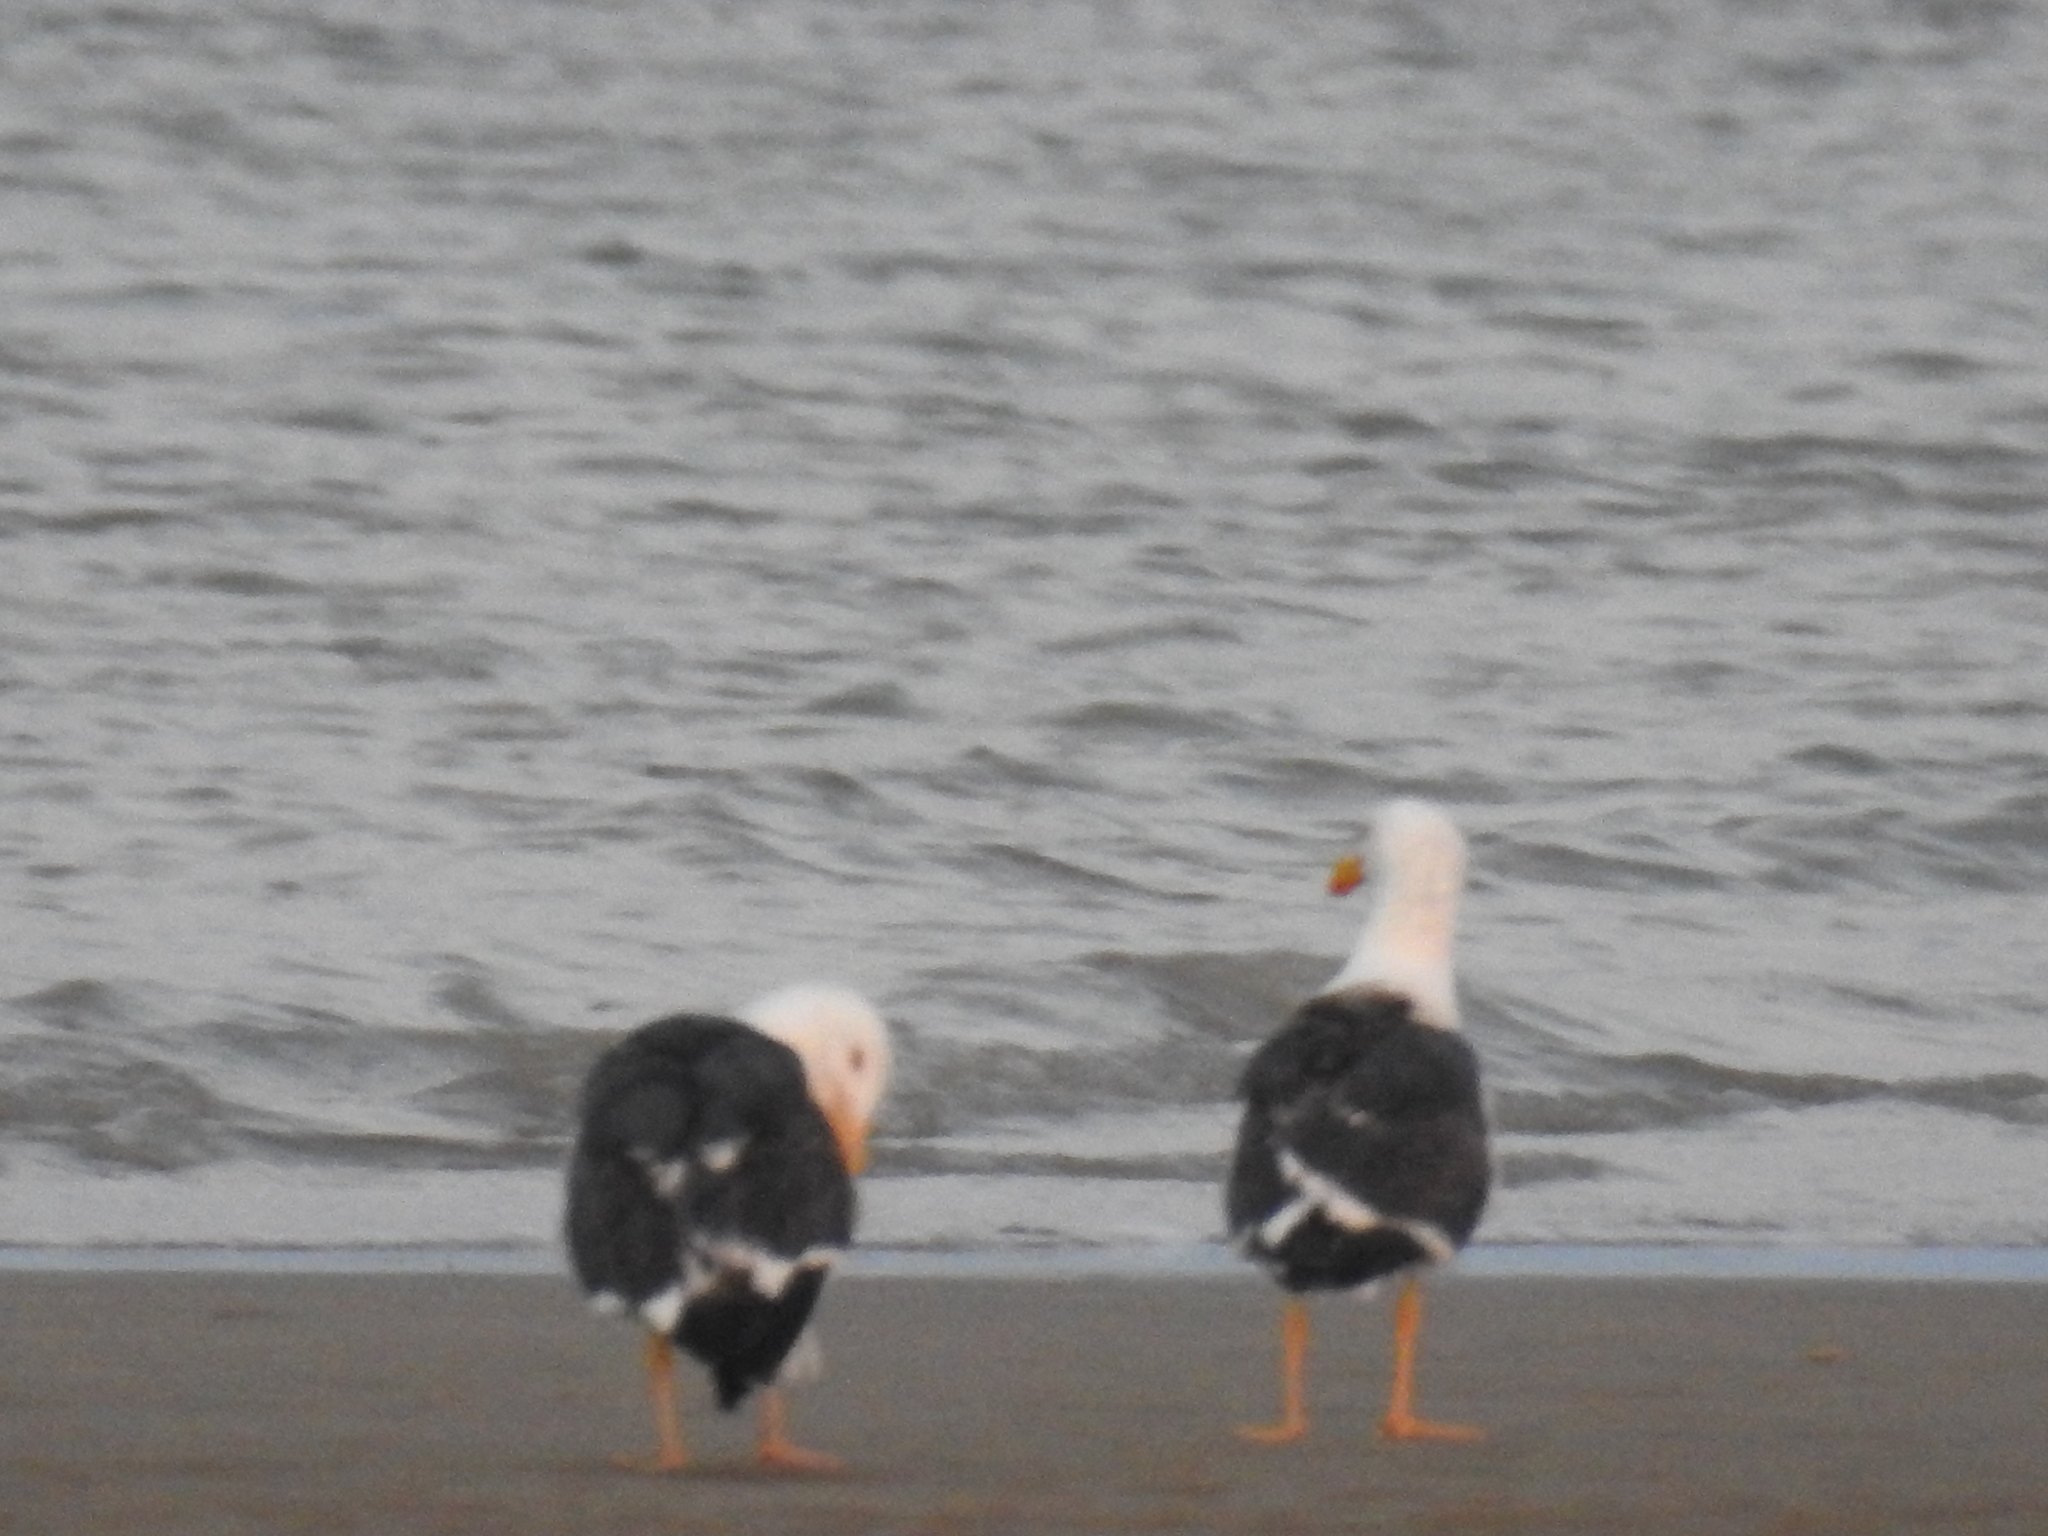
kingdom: Animalia
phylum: Chordata
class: Aves
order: Charadriiformes
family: Laridae
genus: Larus
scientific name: Larus livens
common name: Yellow-footed gull
